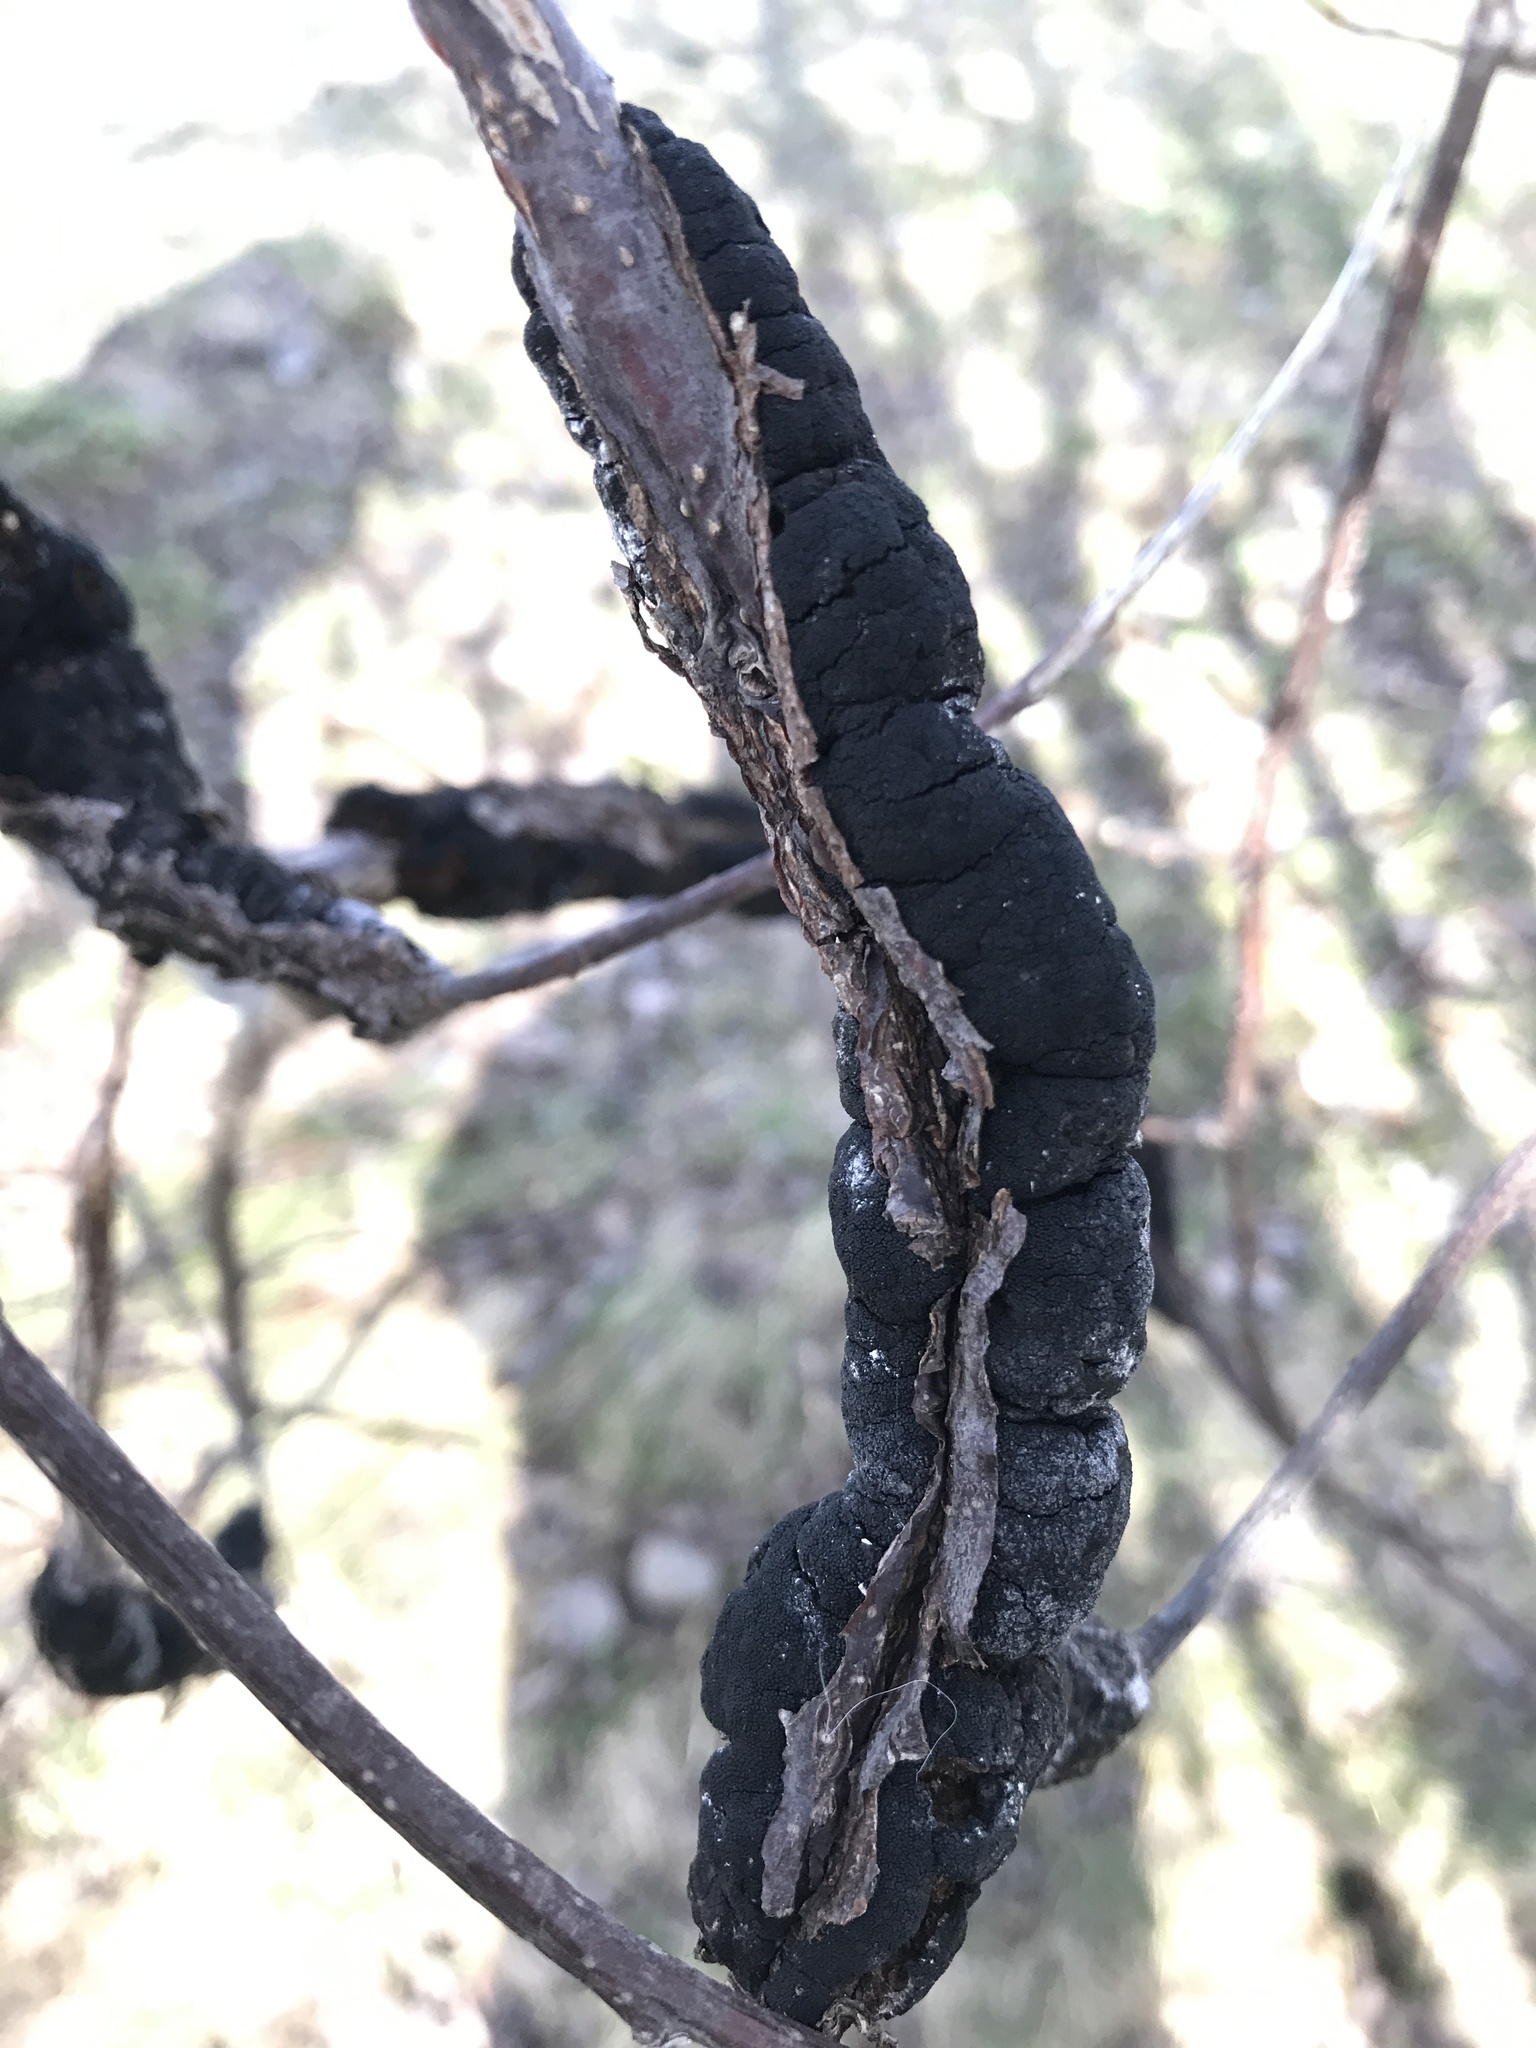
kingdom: Fungi
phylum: Ascomycota
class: Dothideomycetes
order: Venturiales
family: Venturiaceae
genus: Apiosporina
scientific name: Apiosporina morbosa
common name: Black knot
